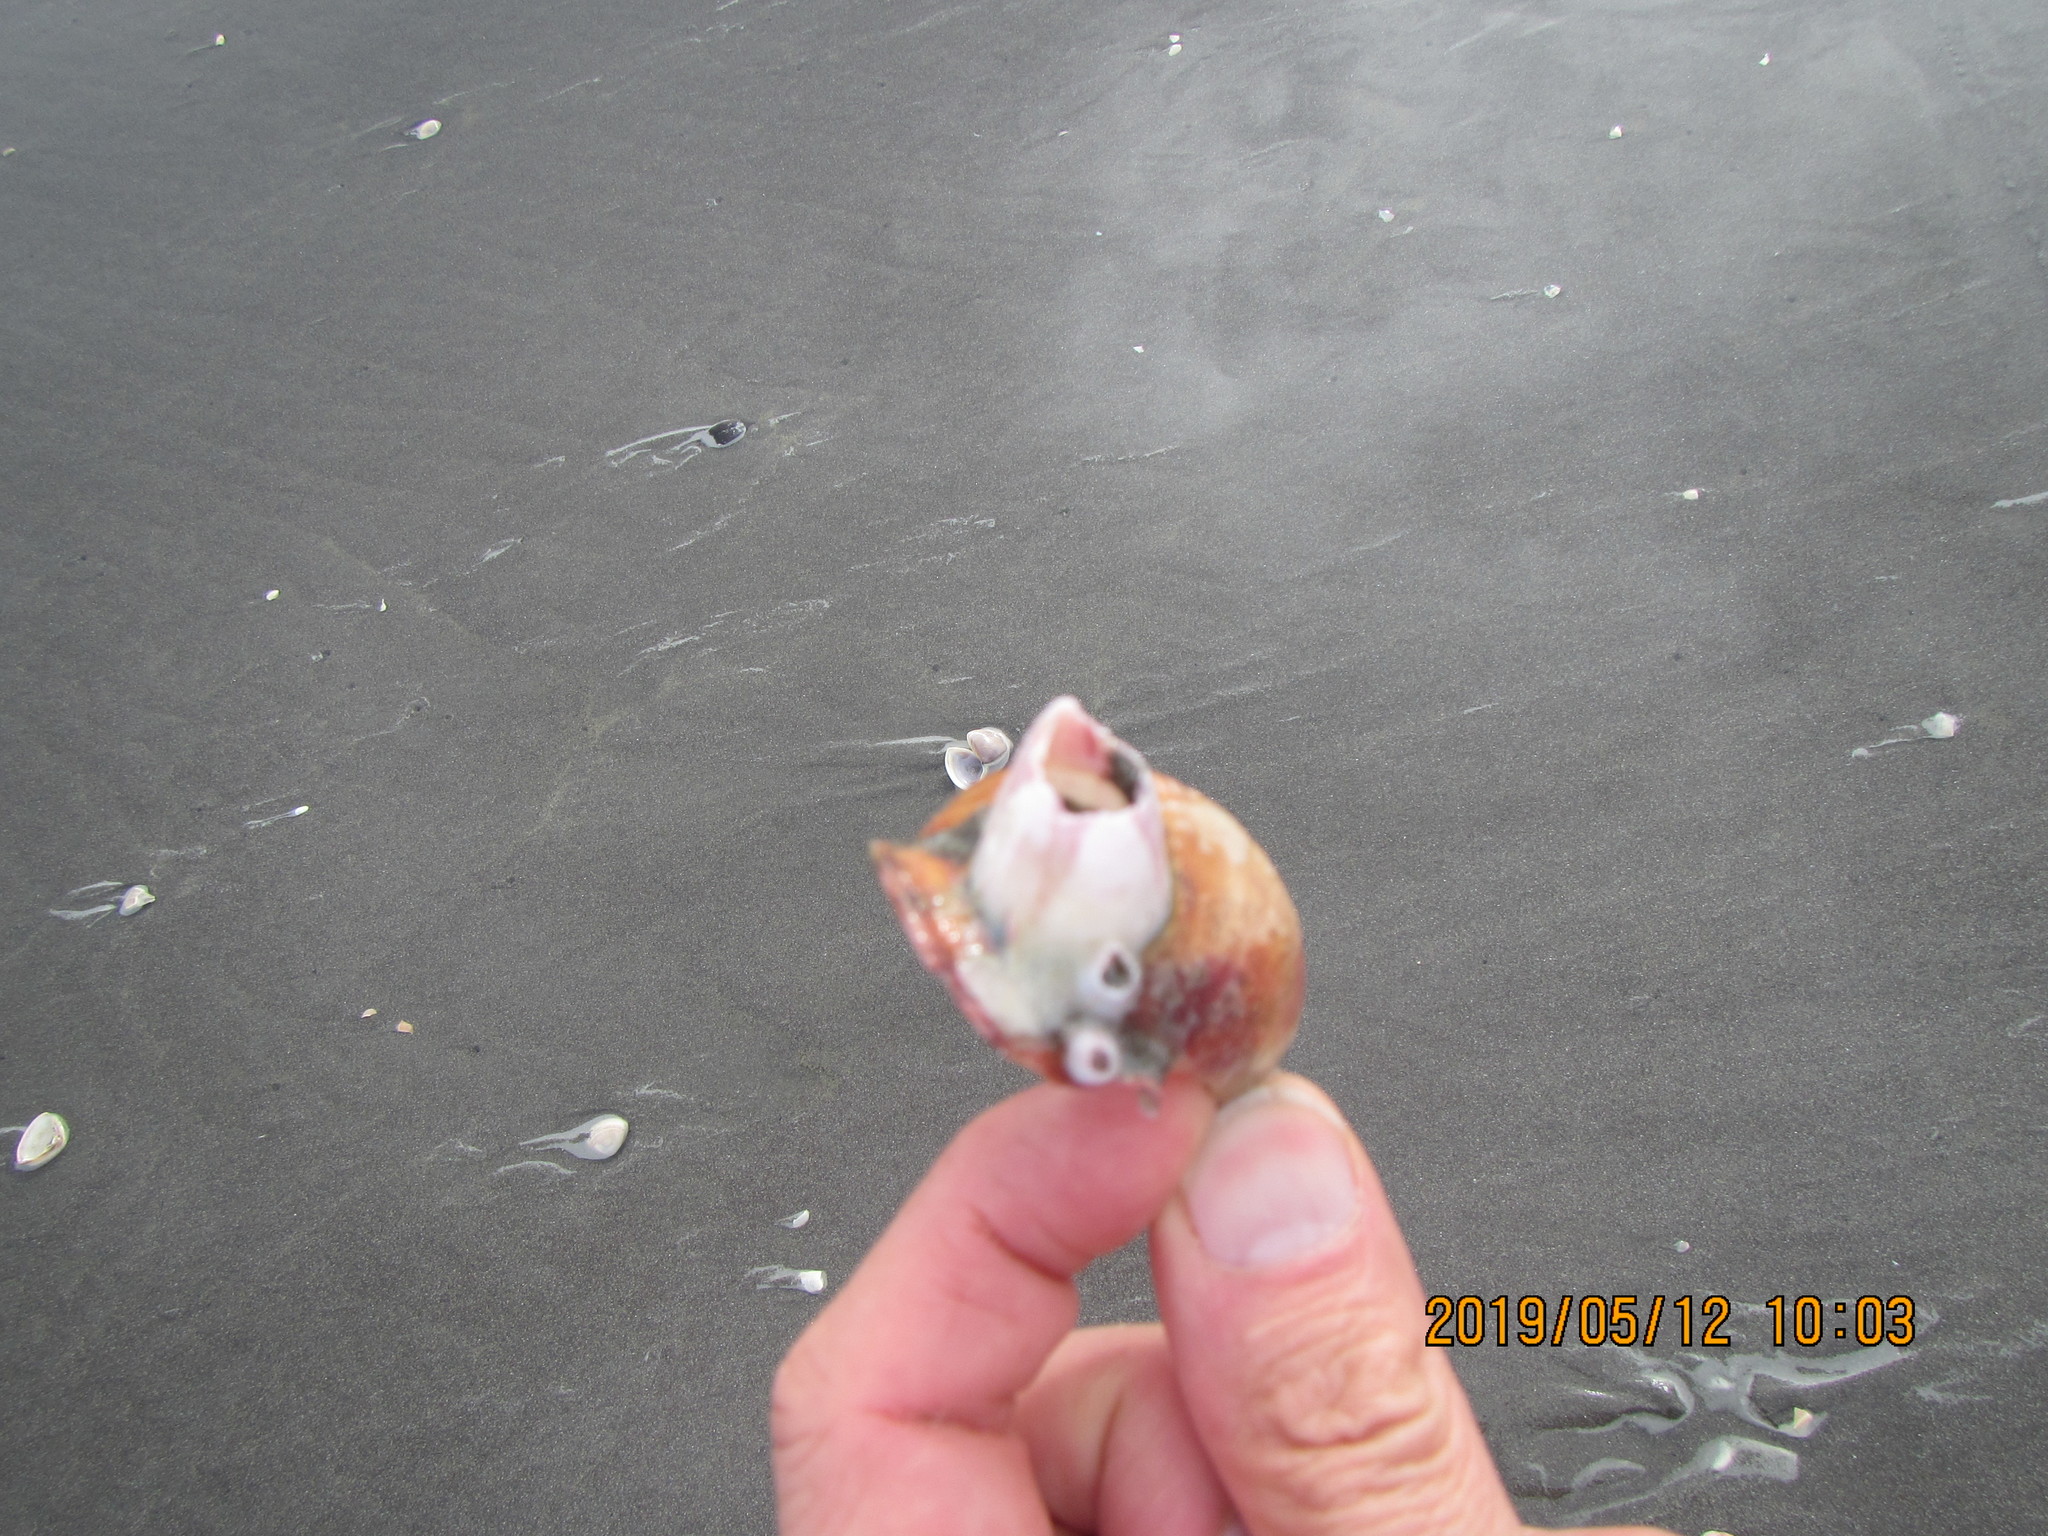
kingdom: Animalia
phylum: Arthropoda
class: Maxillopoda
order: Sessilia
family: Balanidae
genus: Notomegabalanus
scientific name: Notomegabalanus decorus
